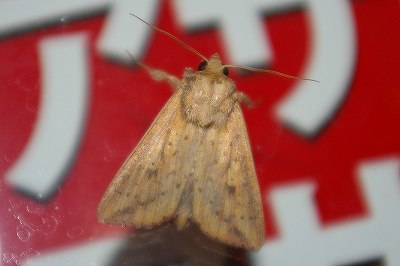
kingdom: Animalia
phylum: Arthropoda
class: Insecta
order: Lepidoptera
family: Noctuidae
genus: Mythimna
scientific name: Mythimna formosana
